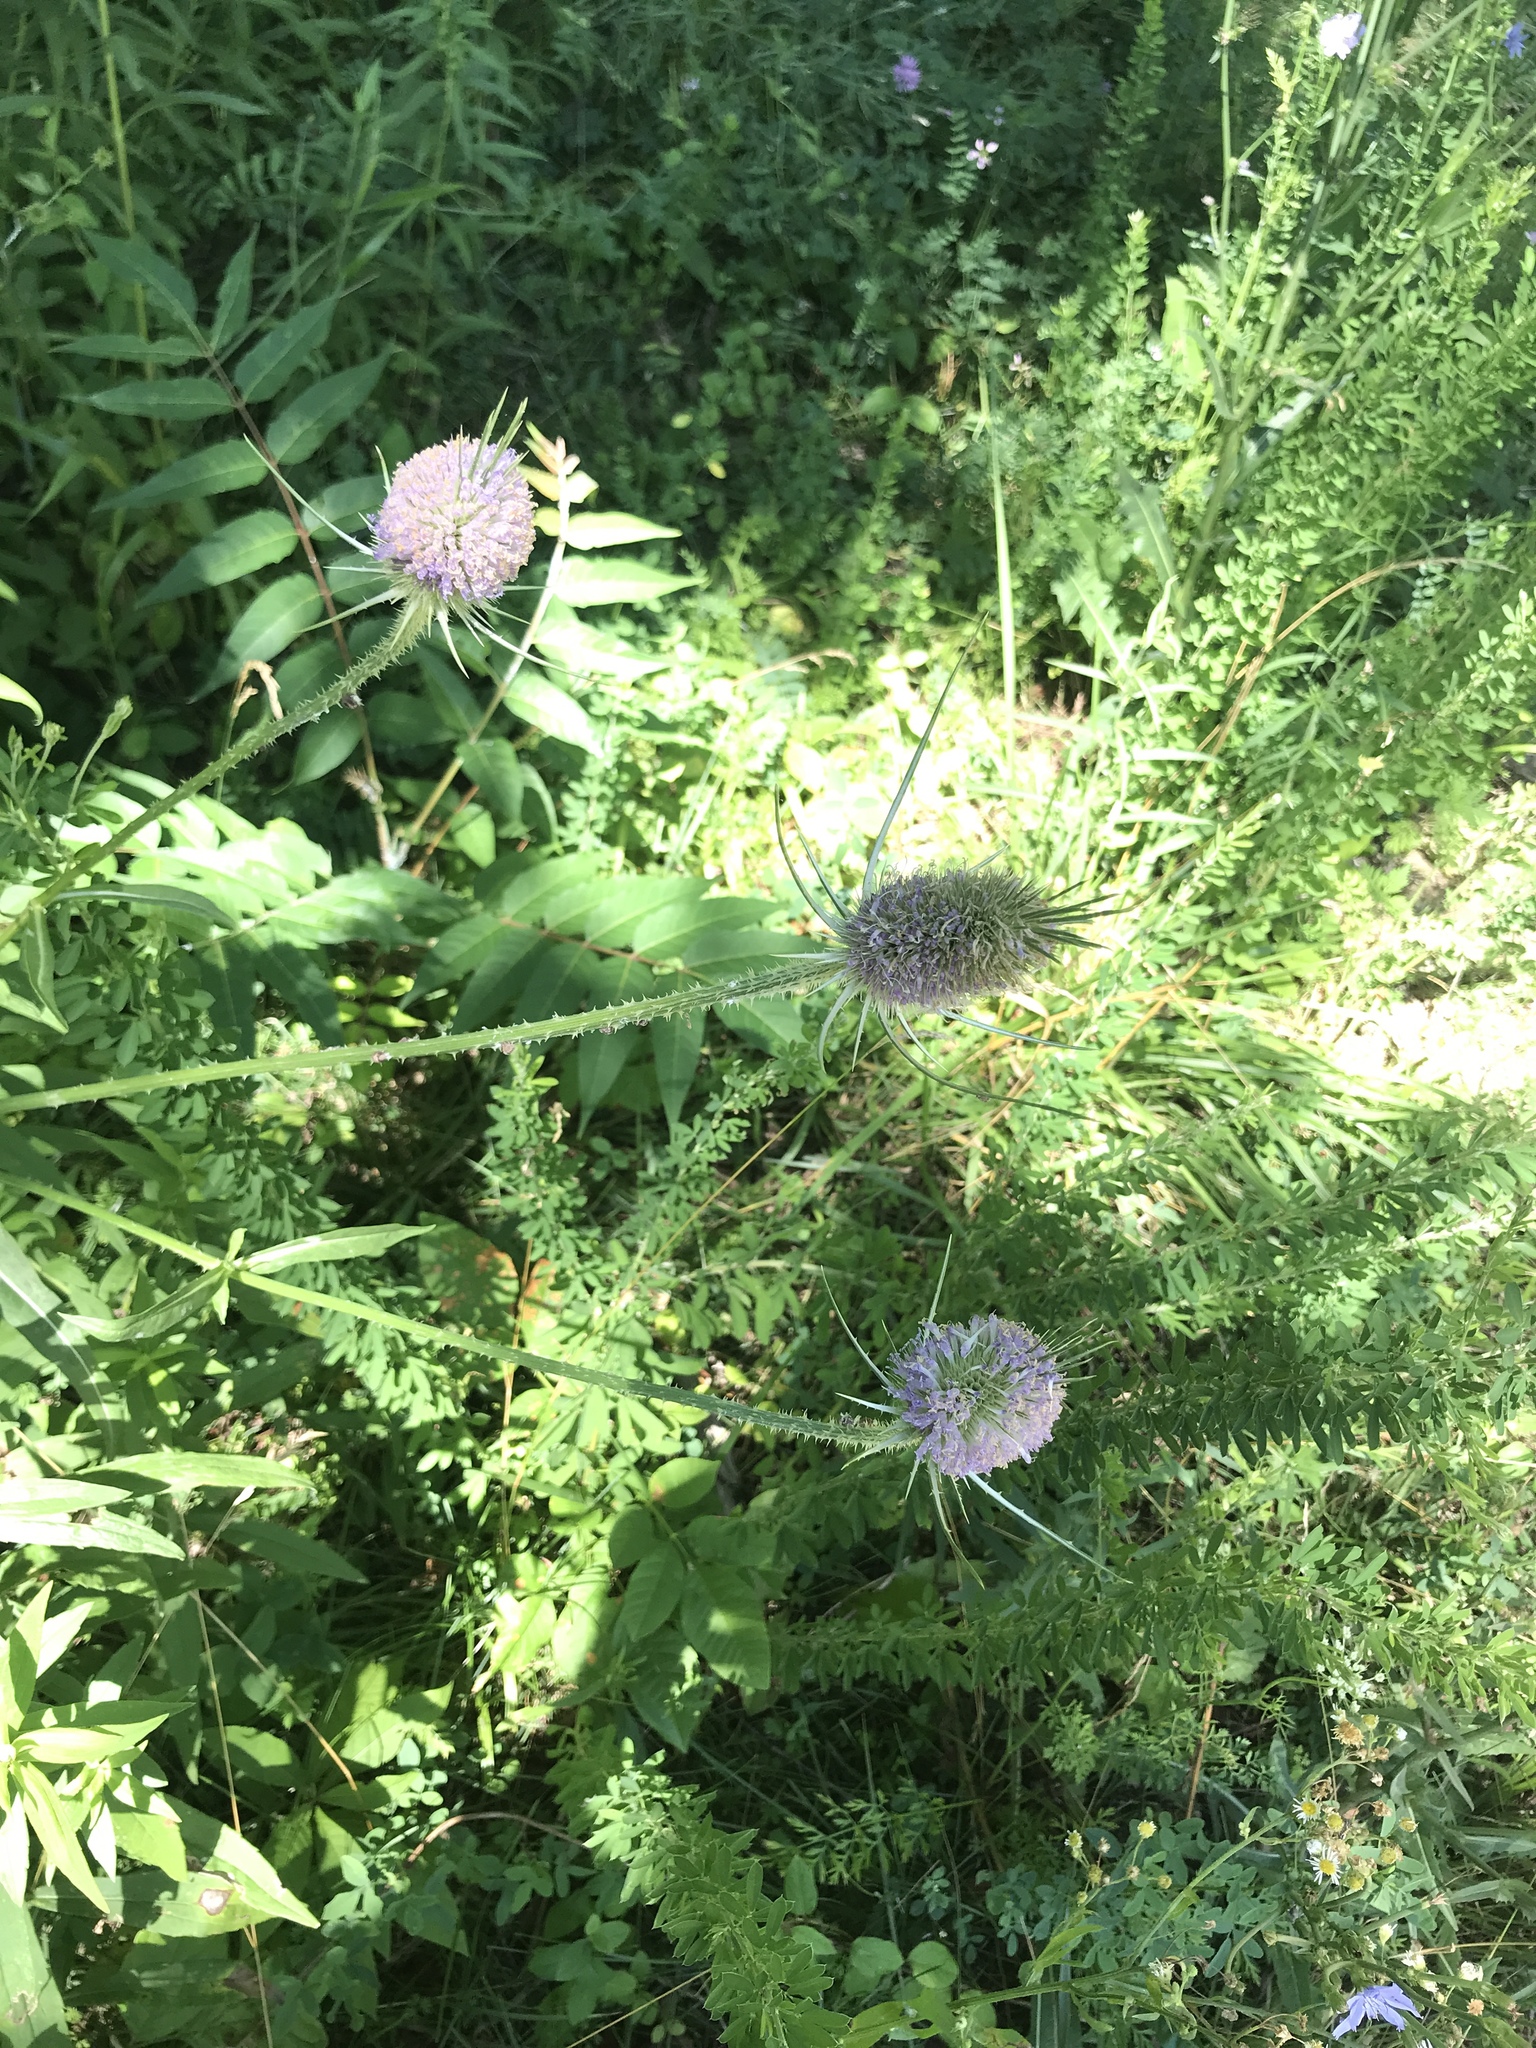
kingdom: Plantae
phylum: Tracheophyta
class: Magnoliopsida
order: Dipsacales
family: Caprifoliaceae
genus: Dipsacus
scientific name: Dipsacus fullonum
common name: Teasel
